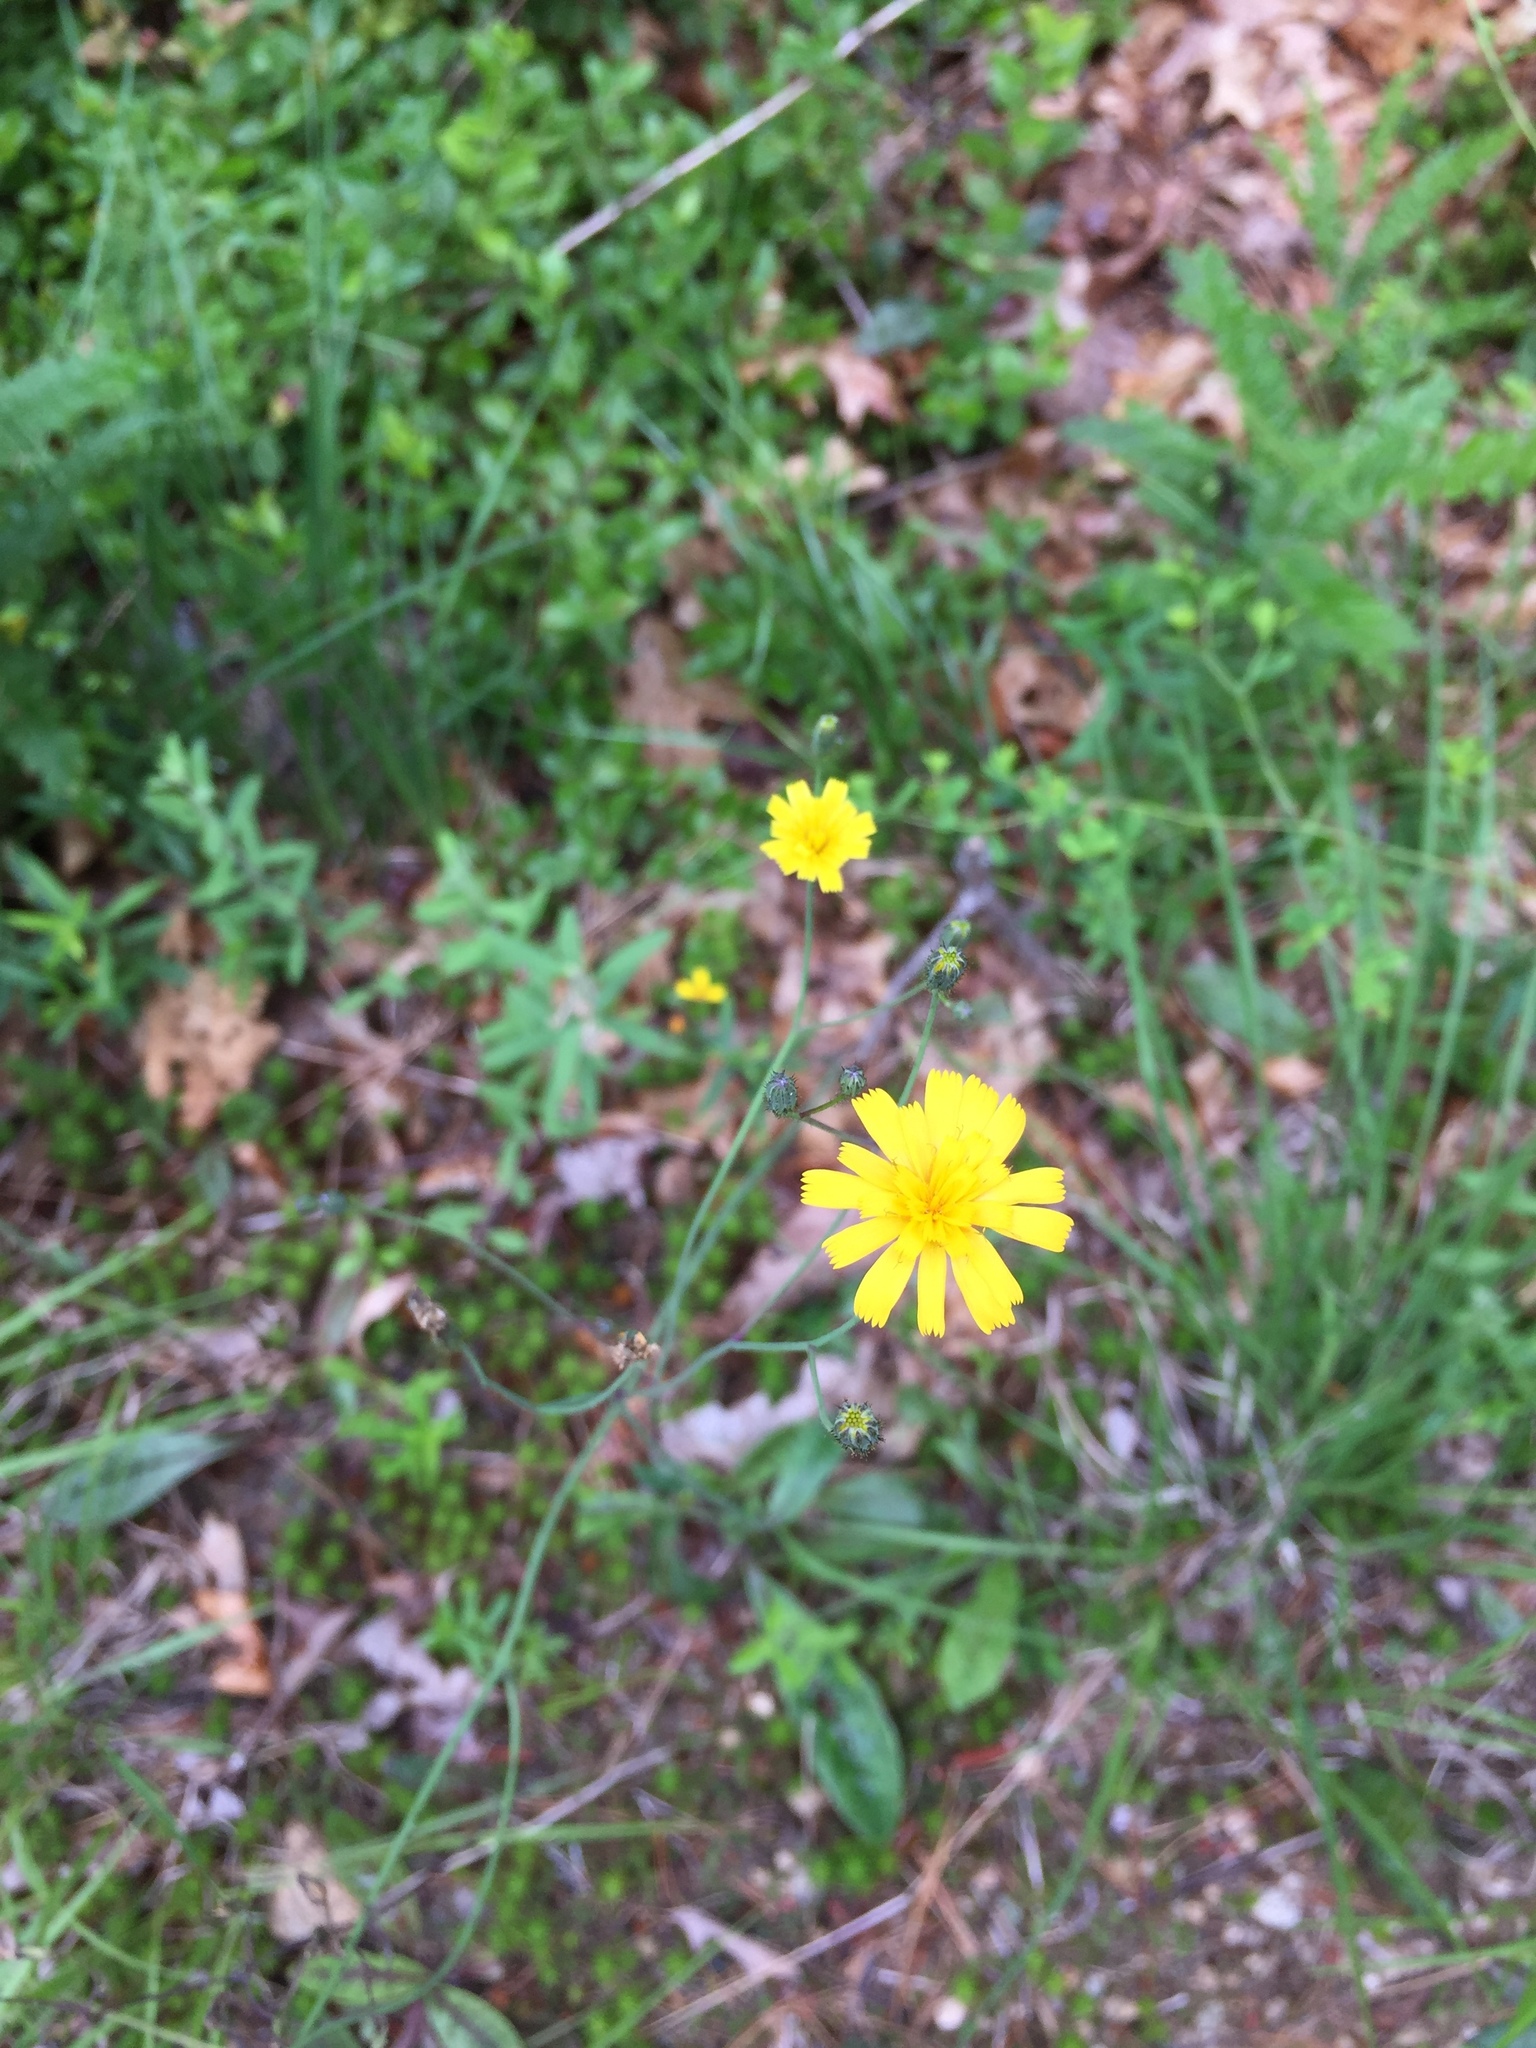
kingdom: Plantae
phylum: Tracheophyta
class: Magnoliopsida
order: Asterales
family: Asteraceae
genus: Hieracium
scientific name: Hieracium venosum
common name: Rattlesnake hawkweed
